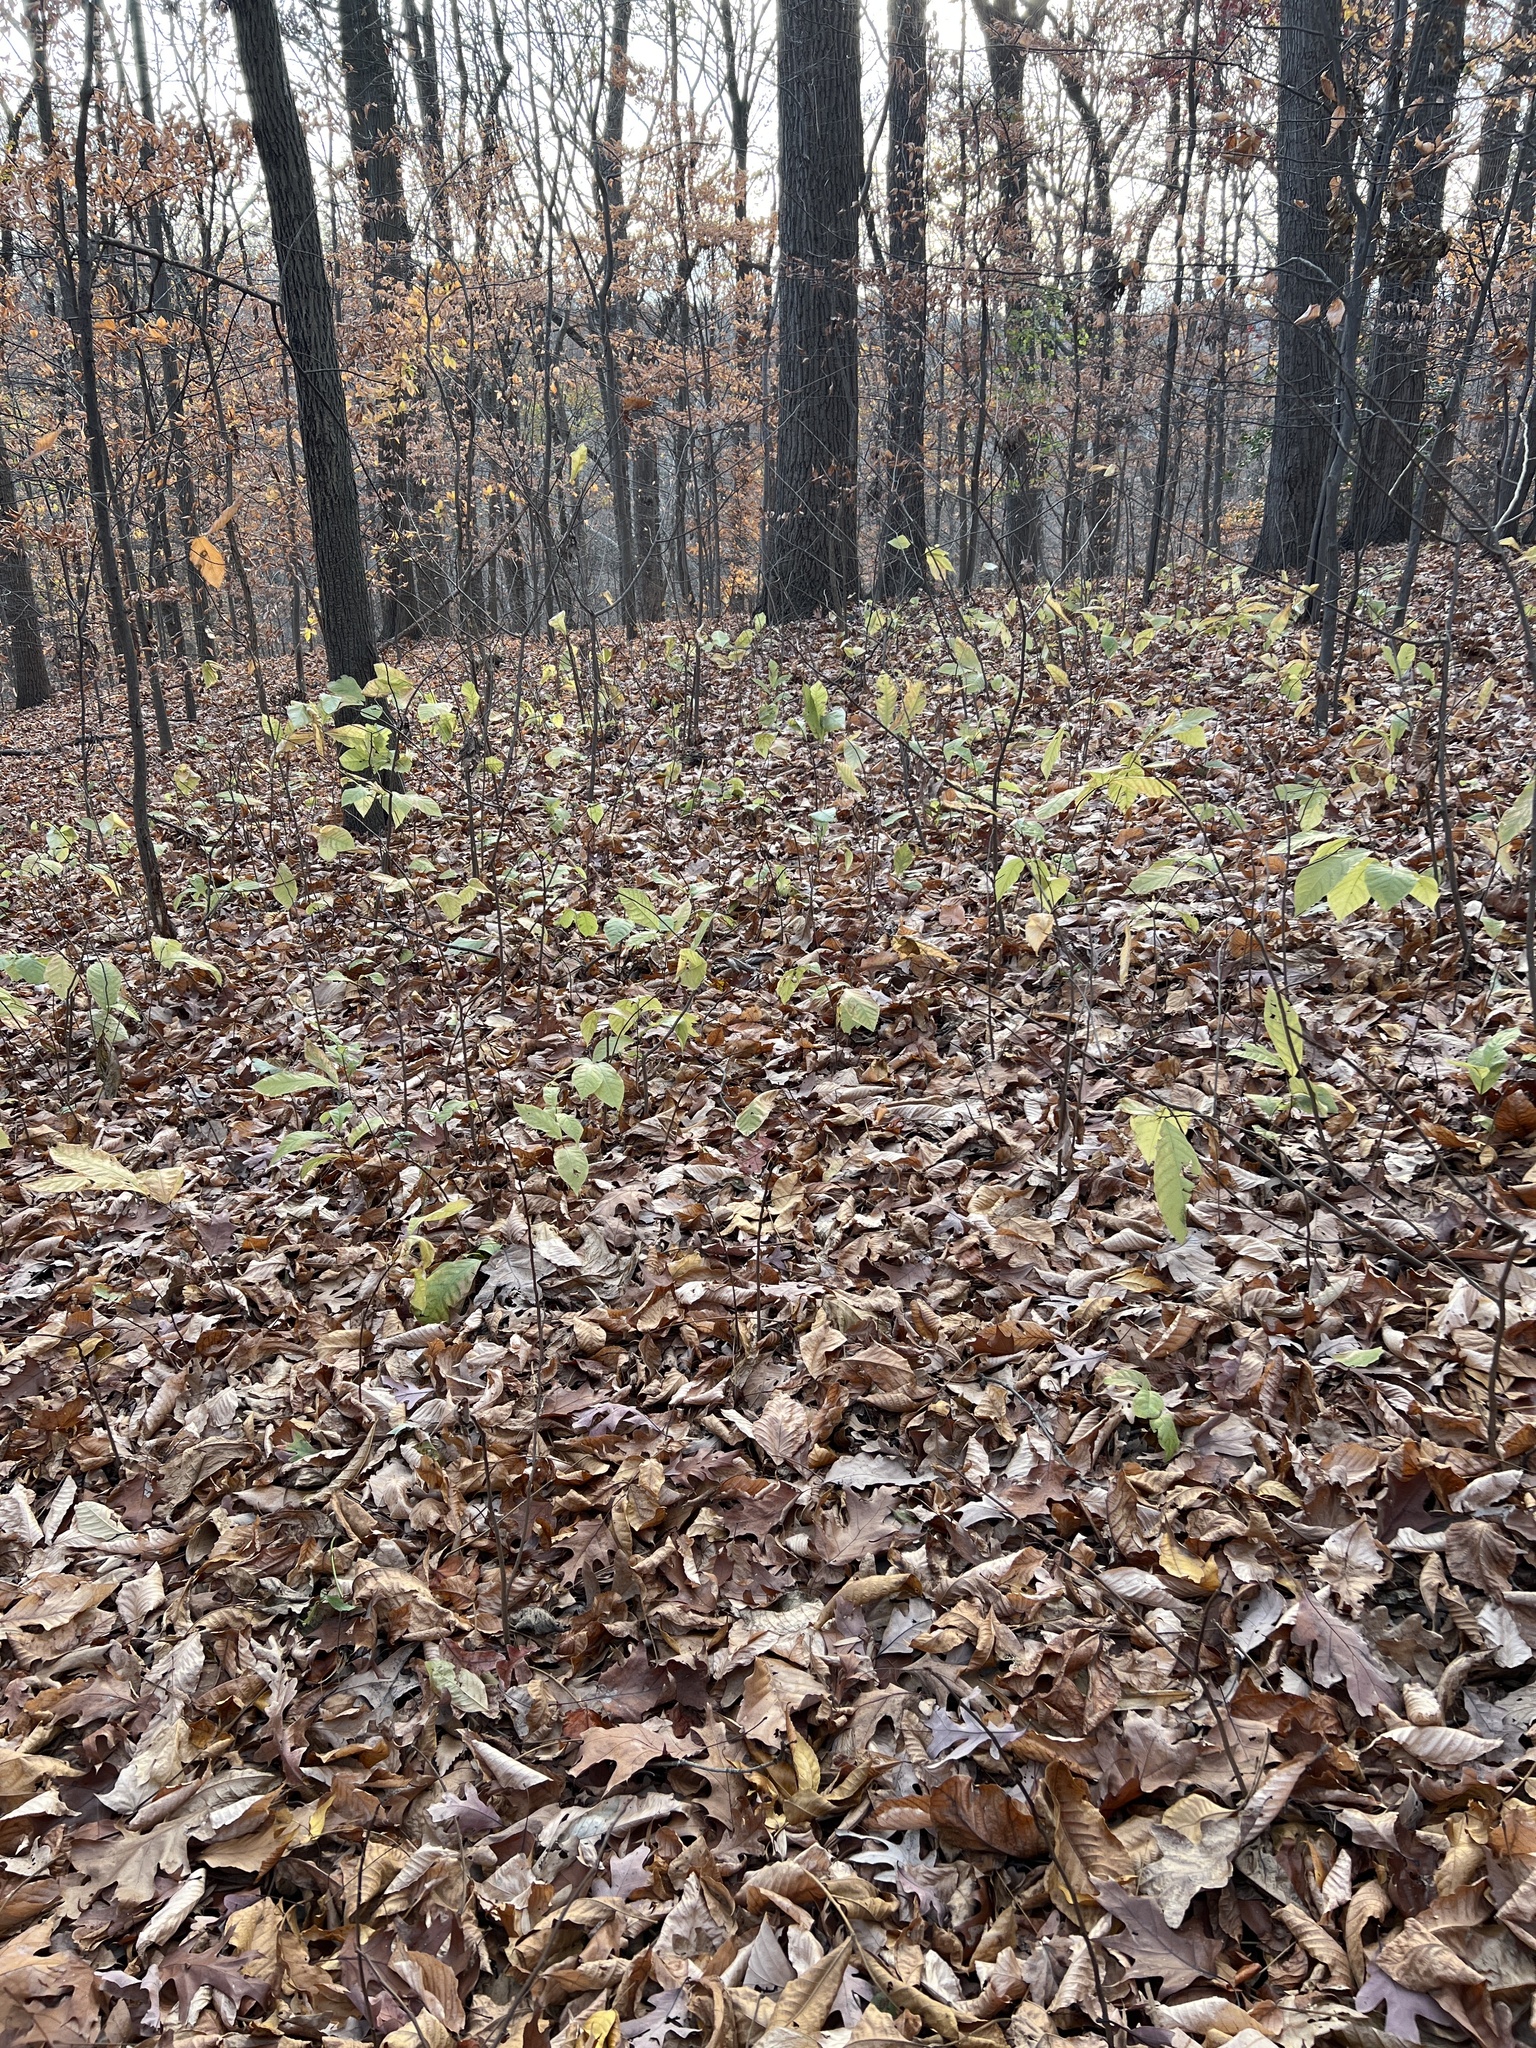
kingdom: Plantae
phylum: Tracheophyta
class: Magnoliopsida
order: Magnoliales
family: Annonaceae
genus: Asimina
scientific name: Asimina triloba
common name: Dog-banana
